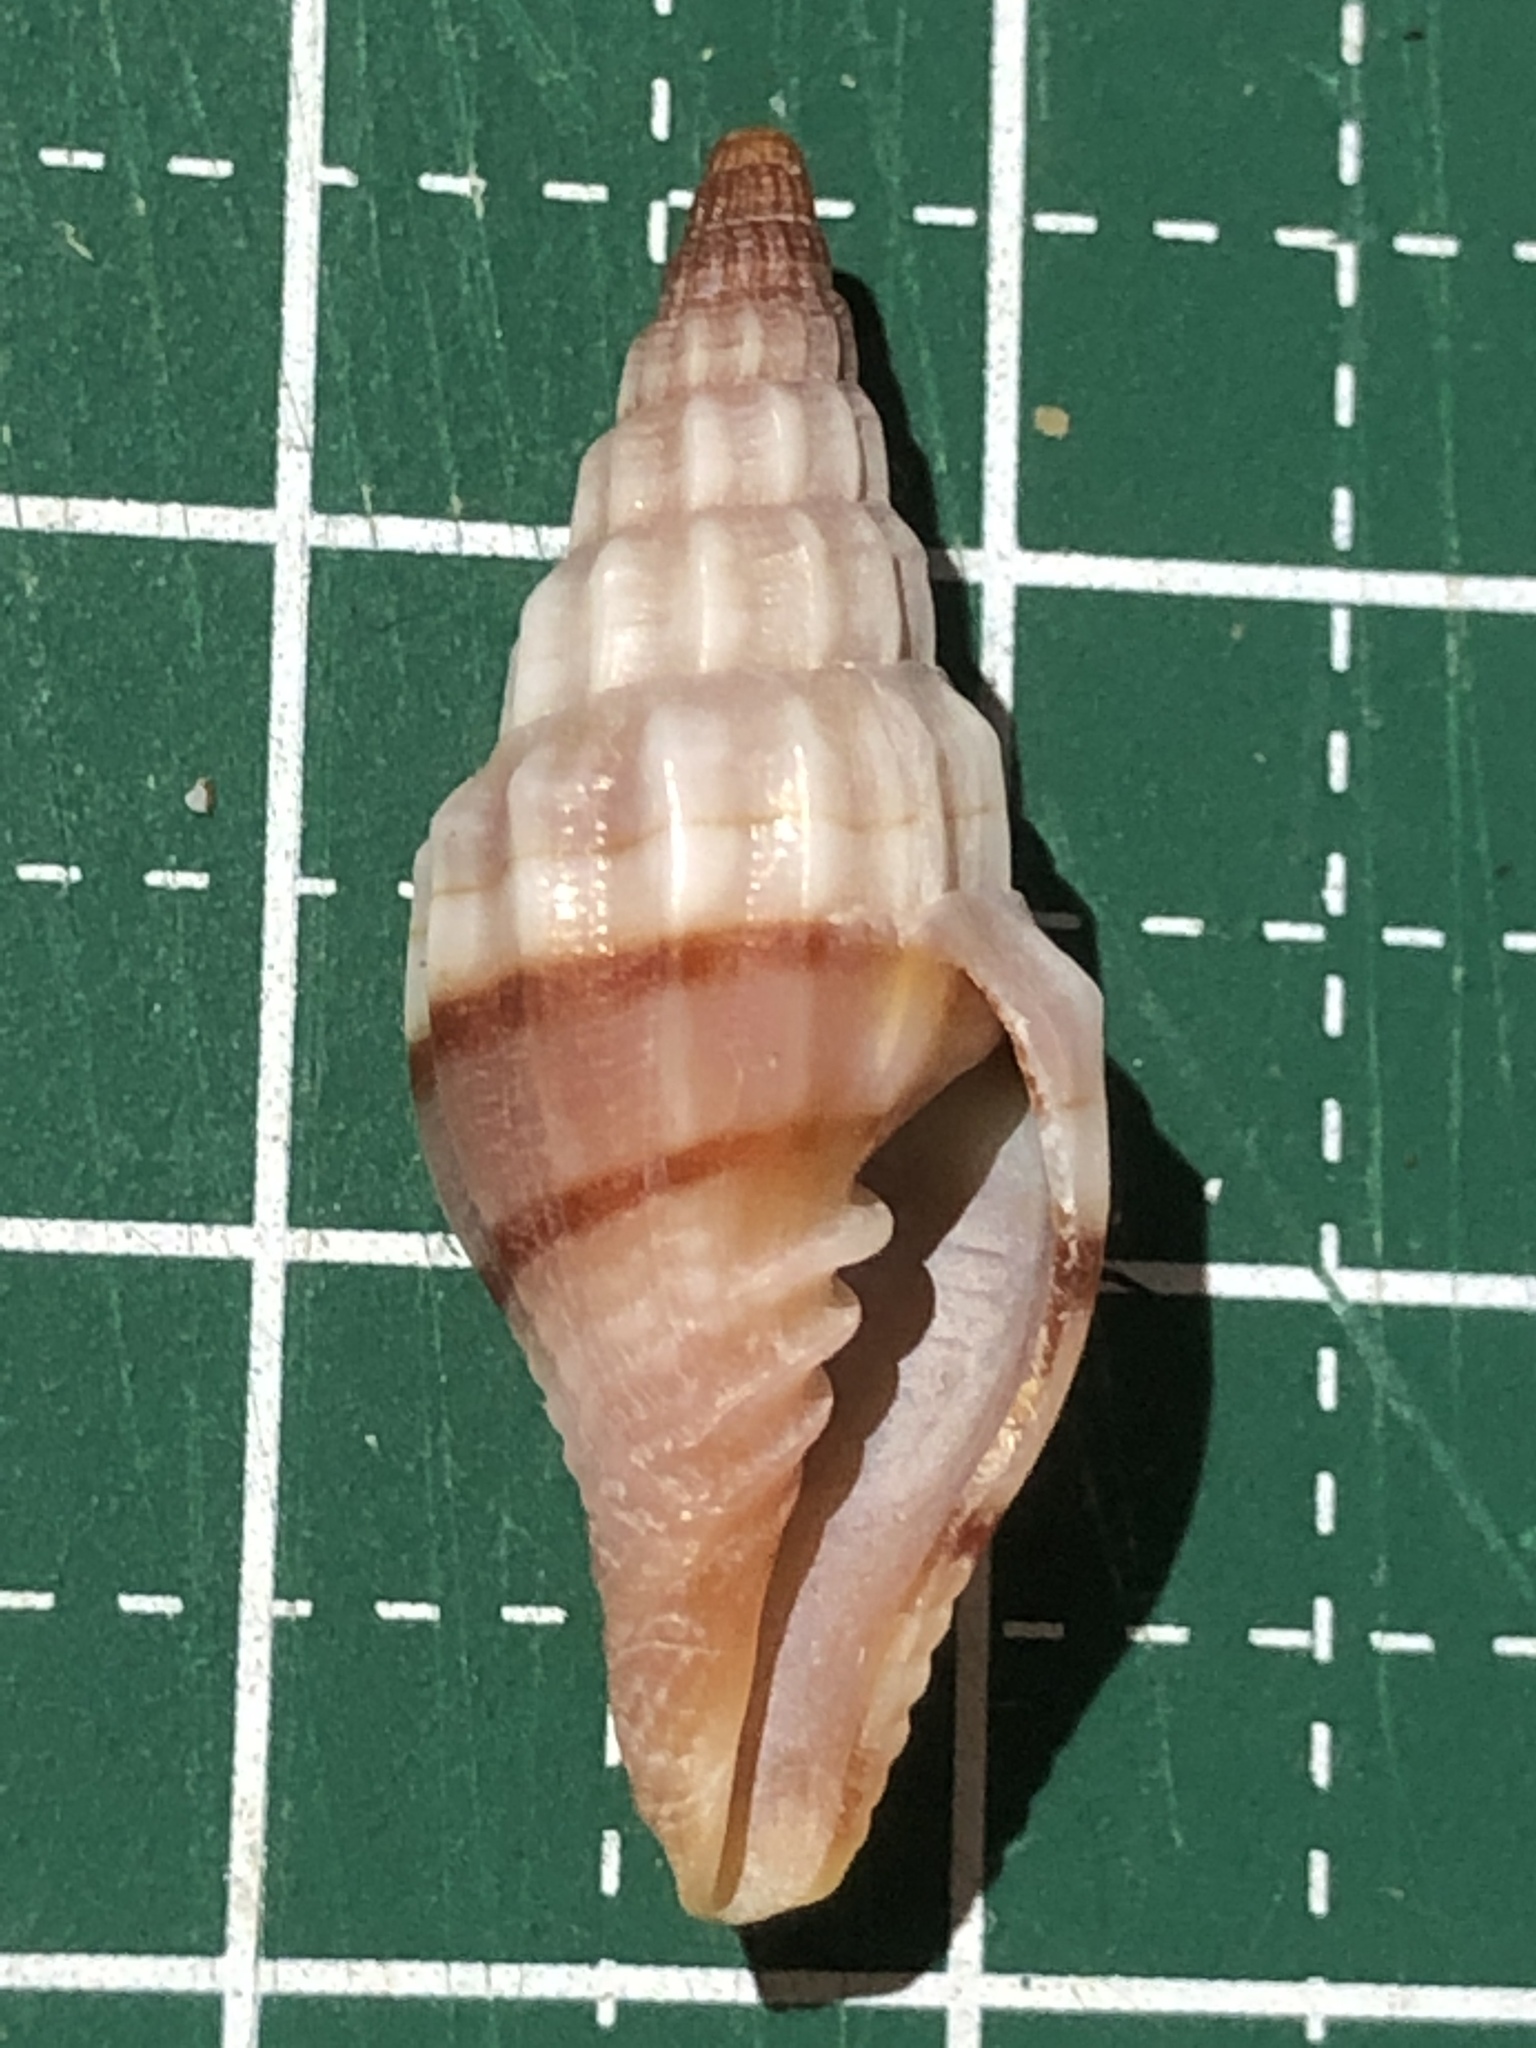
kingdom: Animalia
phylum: Mollusca
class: Gastropoda
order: Neogastropoda
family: Costellariidae
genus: Vexillum
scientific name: Vexillum balteolatum
